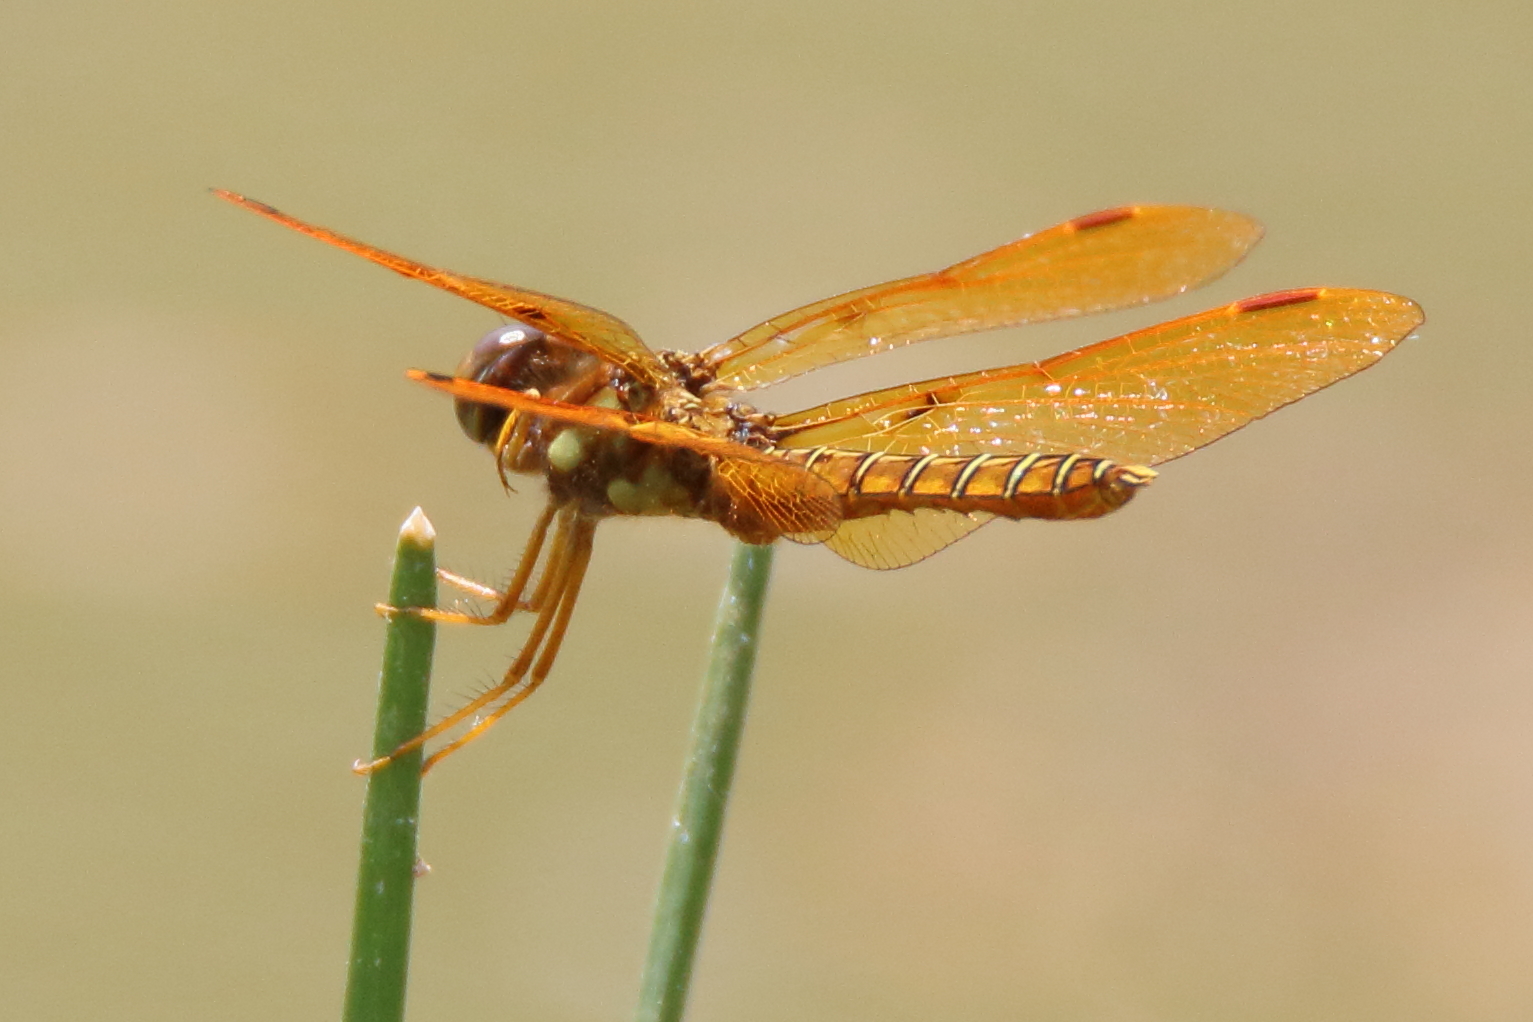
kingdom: Animalia
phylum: Arthropoda
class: Insecta
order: Odonata
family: Libellulidae
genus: Perithemis
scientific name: Perithemis tenera
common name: Eastern amberwing
